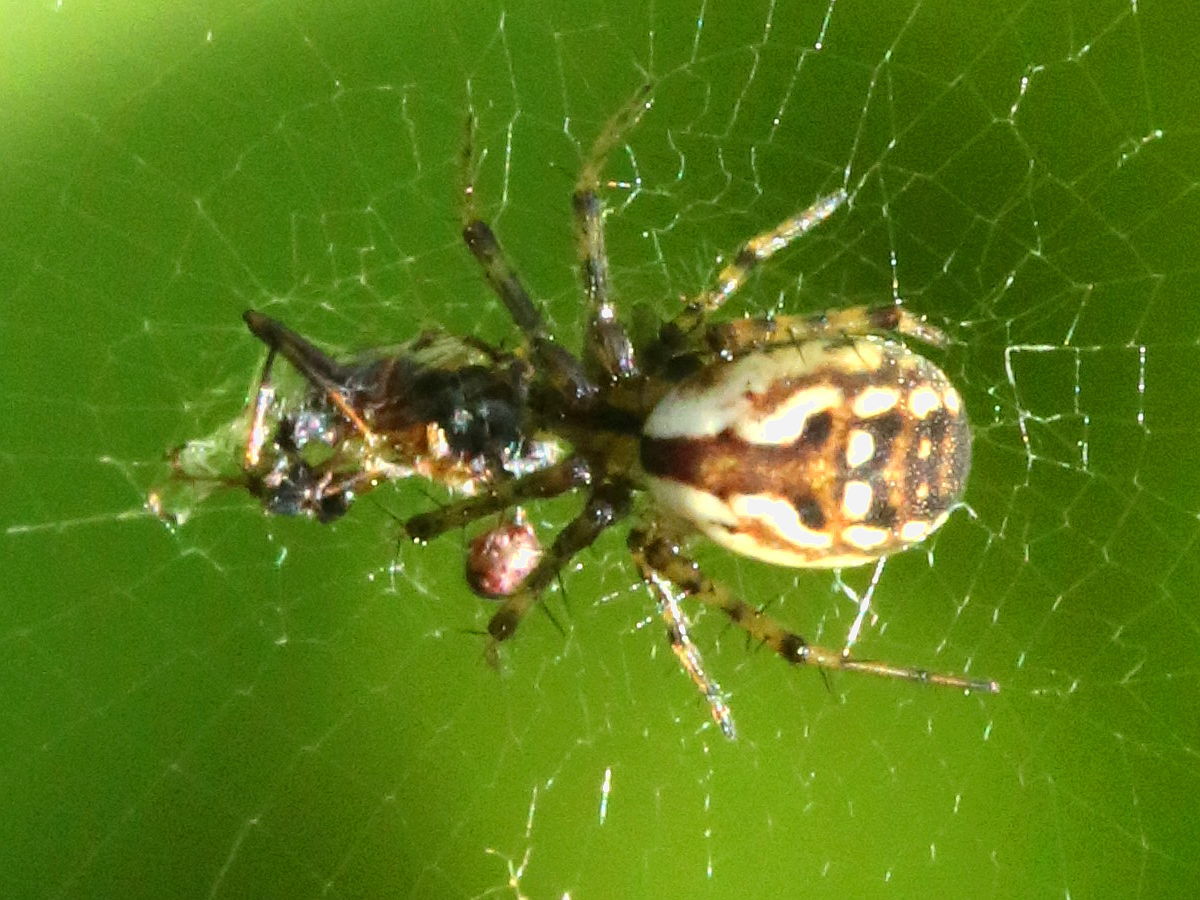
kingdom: Animalia
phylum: Arthropoda
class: Arachnida
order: Araneae
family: Araneidae
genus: Mangora
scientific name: Mangora placida
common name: Tuft-legged orbweaver
